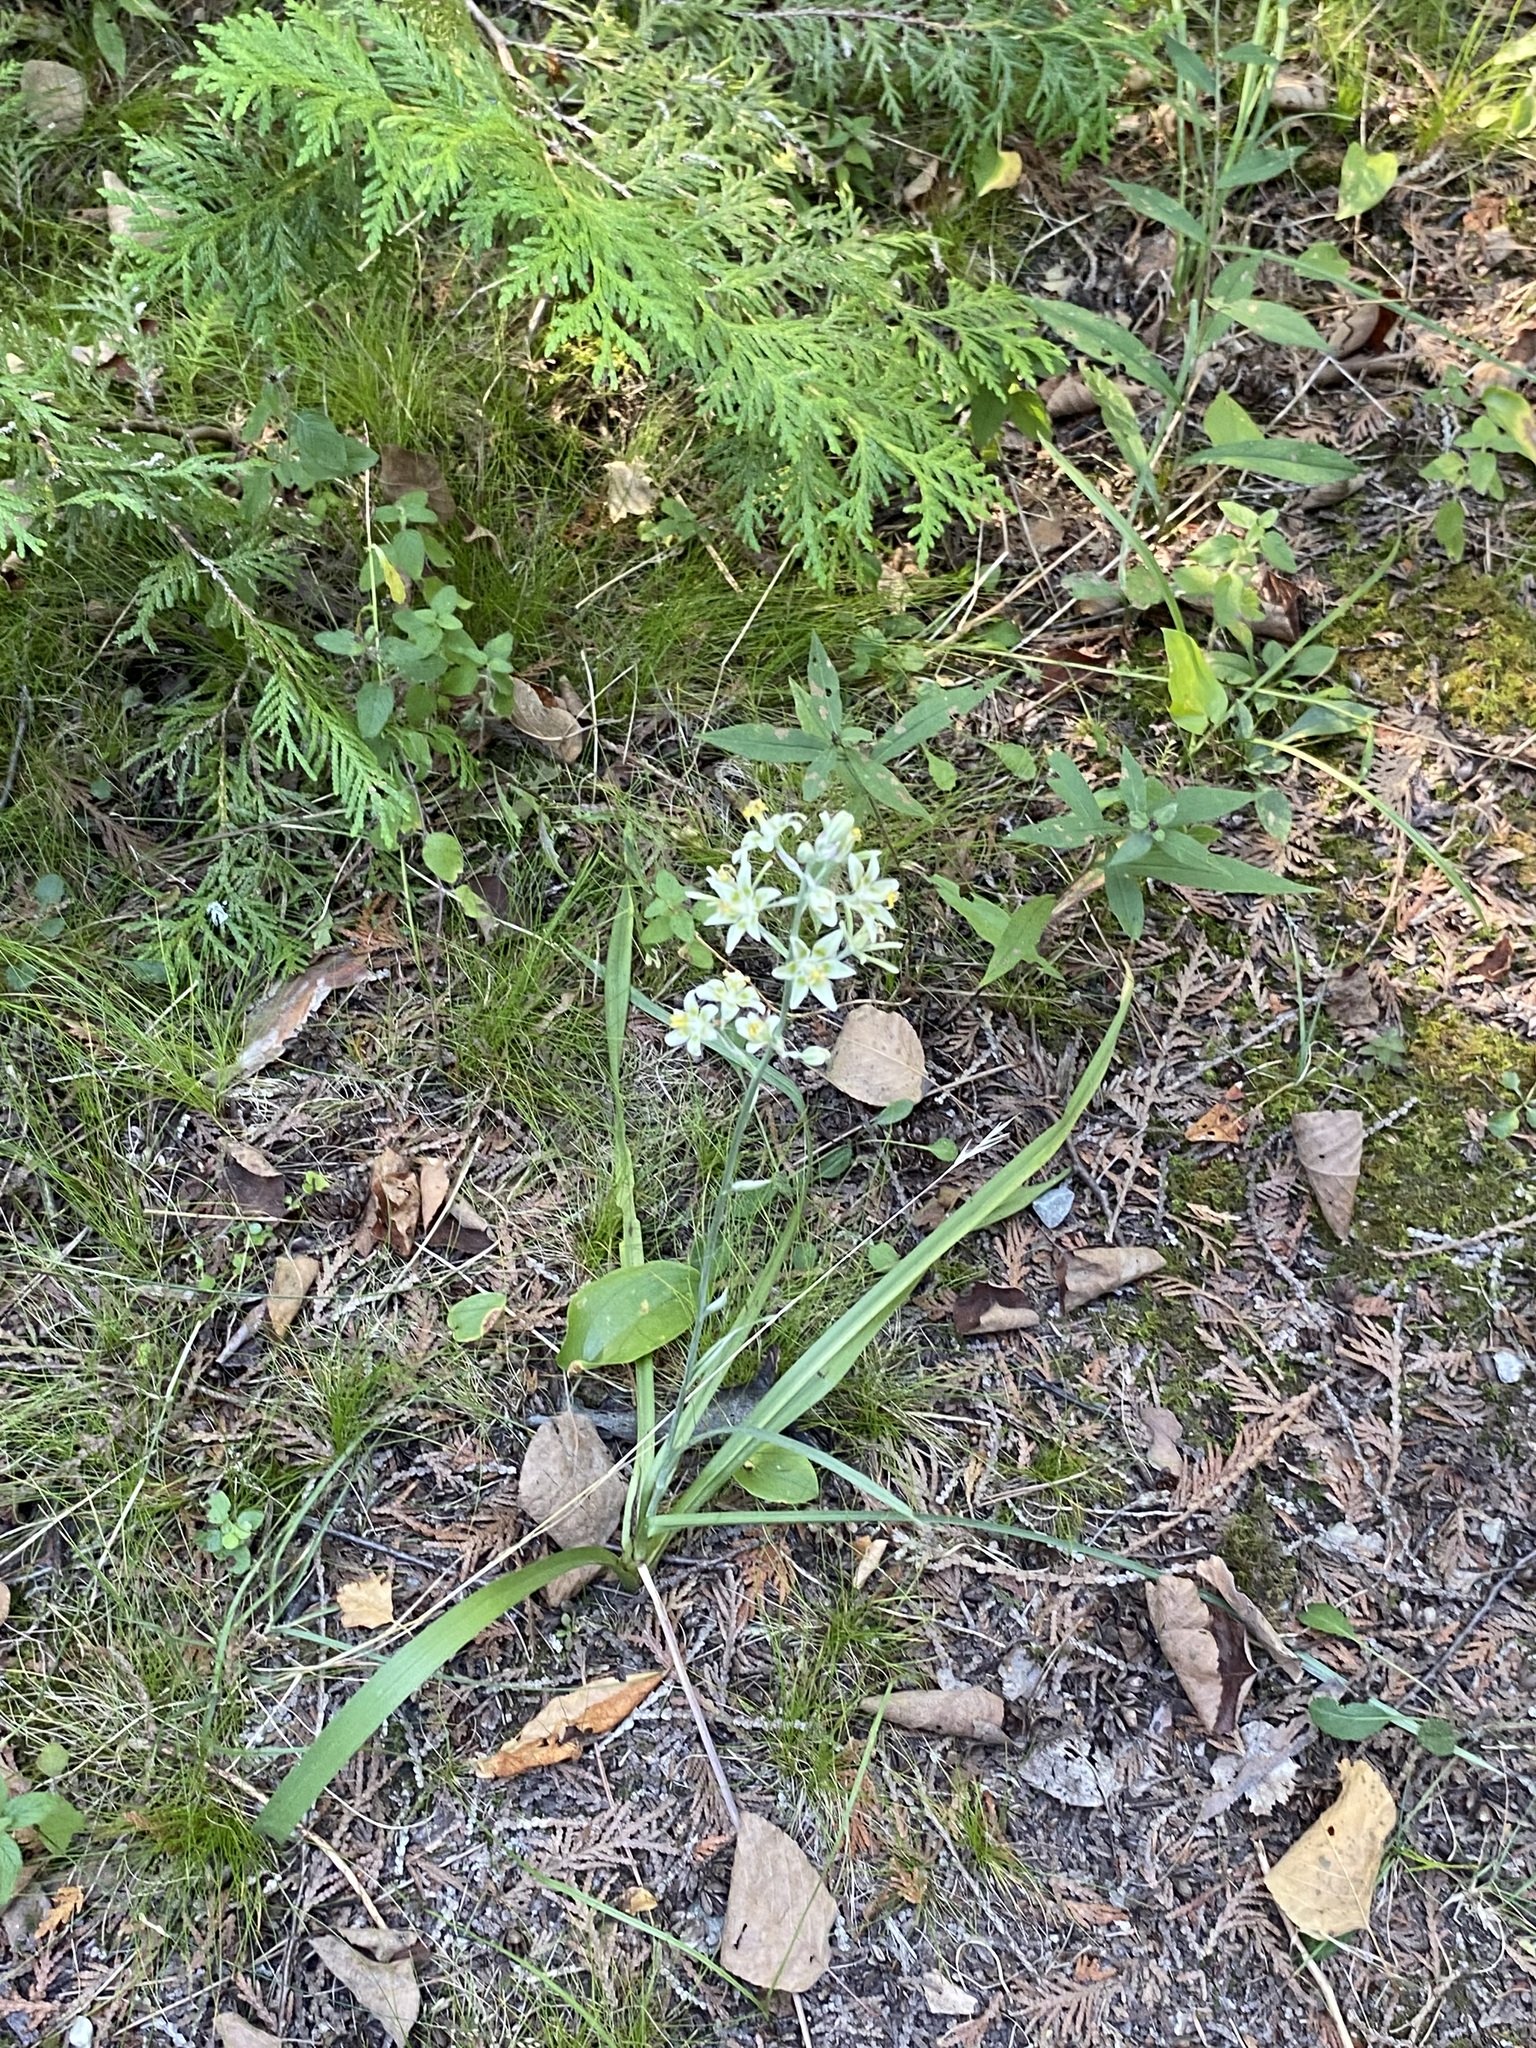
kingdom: Plantae
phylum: Tracheophyta
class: Liliopsida
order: Liliales
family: Melanthiaceae
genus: Anticlea
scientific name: Anticlea elegans
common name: Mountain death camas
